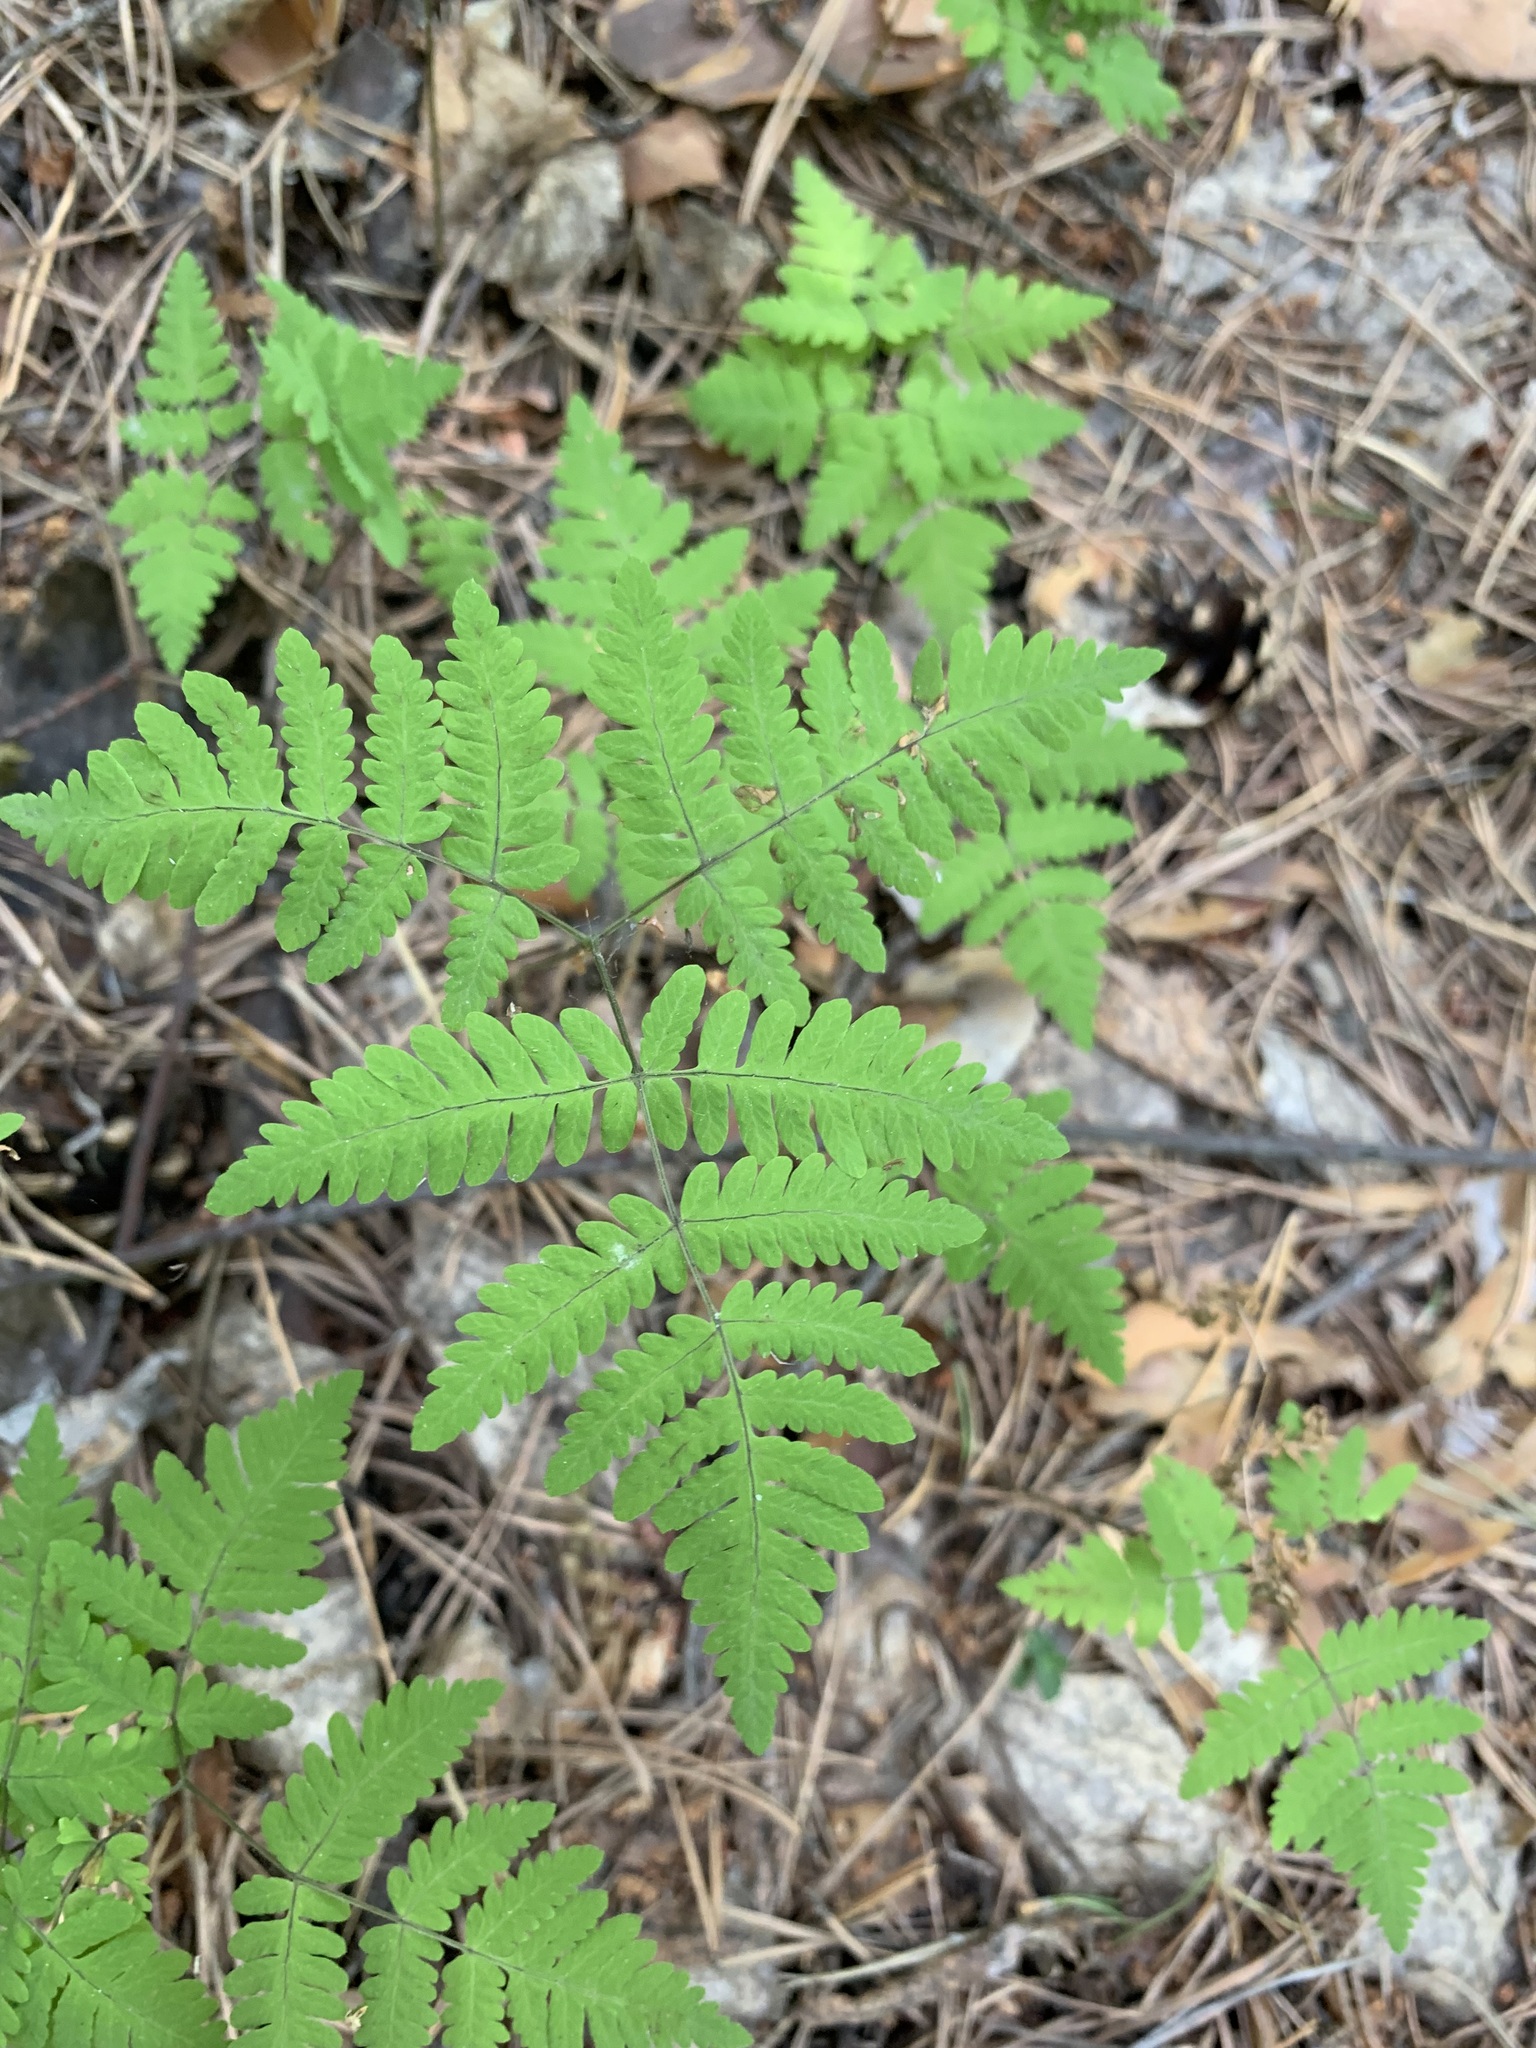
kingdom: Plantae
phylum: Tracheophyta
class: Polypodiopsida
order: Polypodiales
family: Cystopteridaceae
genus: Gymnocarpium
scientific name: Gymnocarpium dryopteris
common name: Oak fern
